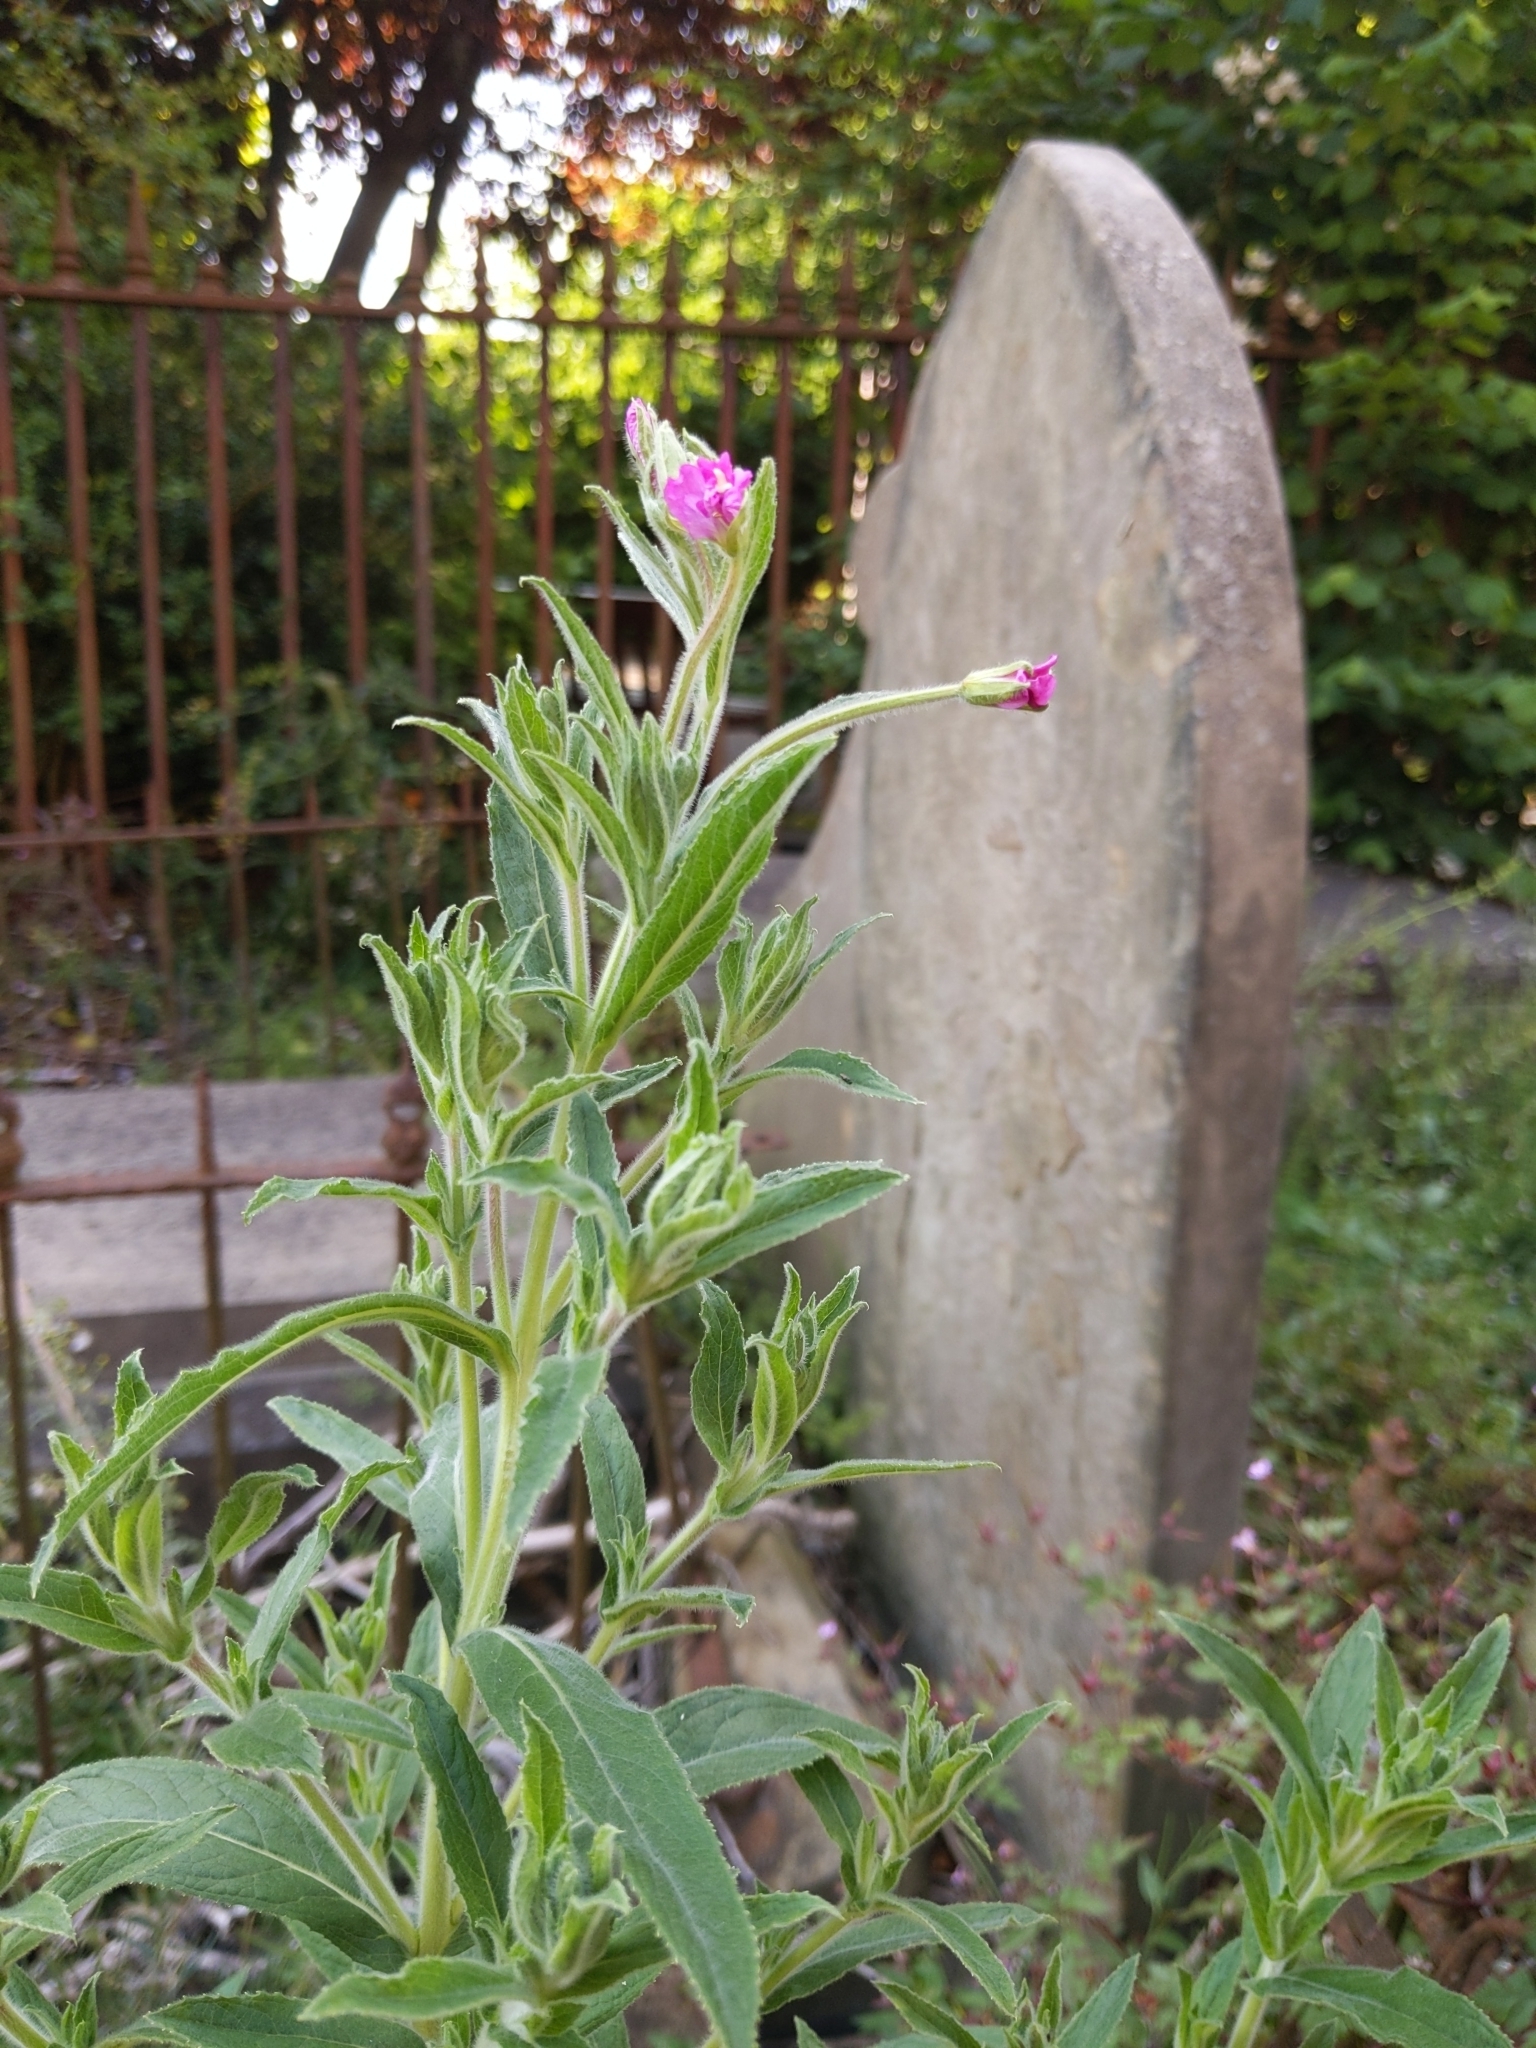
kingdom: Plantae
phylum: Tracheophyta
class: Magnoliopsida
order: Myrtales
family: Onagraceae
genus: Epilobium
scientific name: Epilobium hirsutum
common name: Great willowherb
